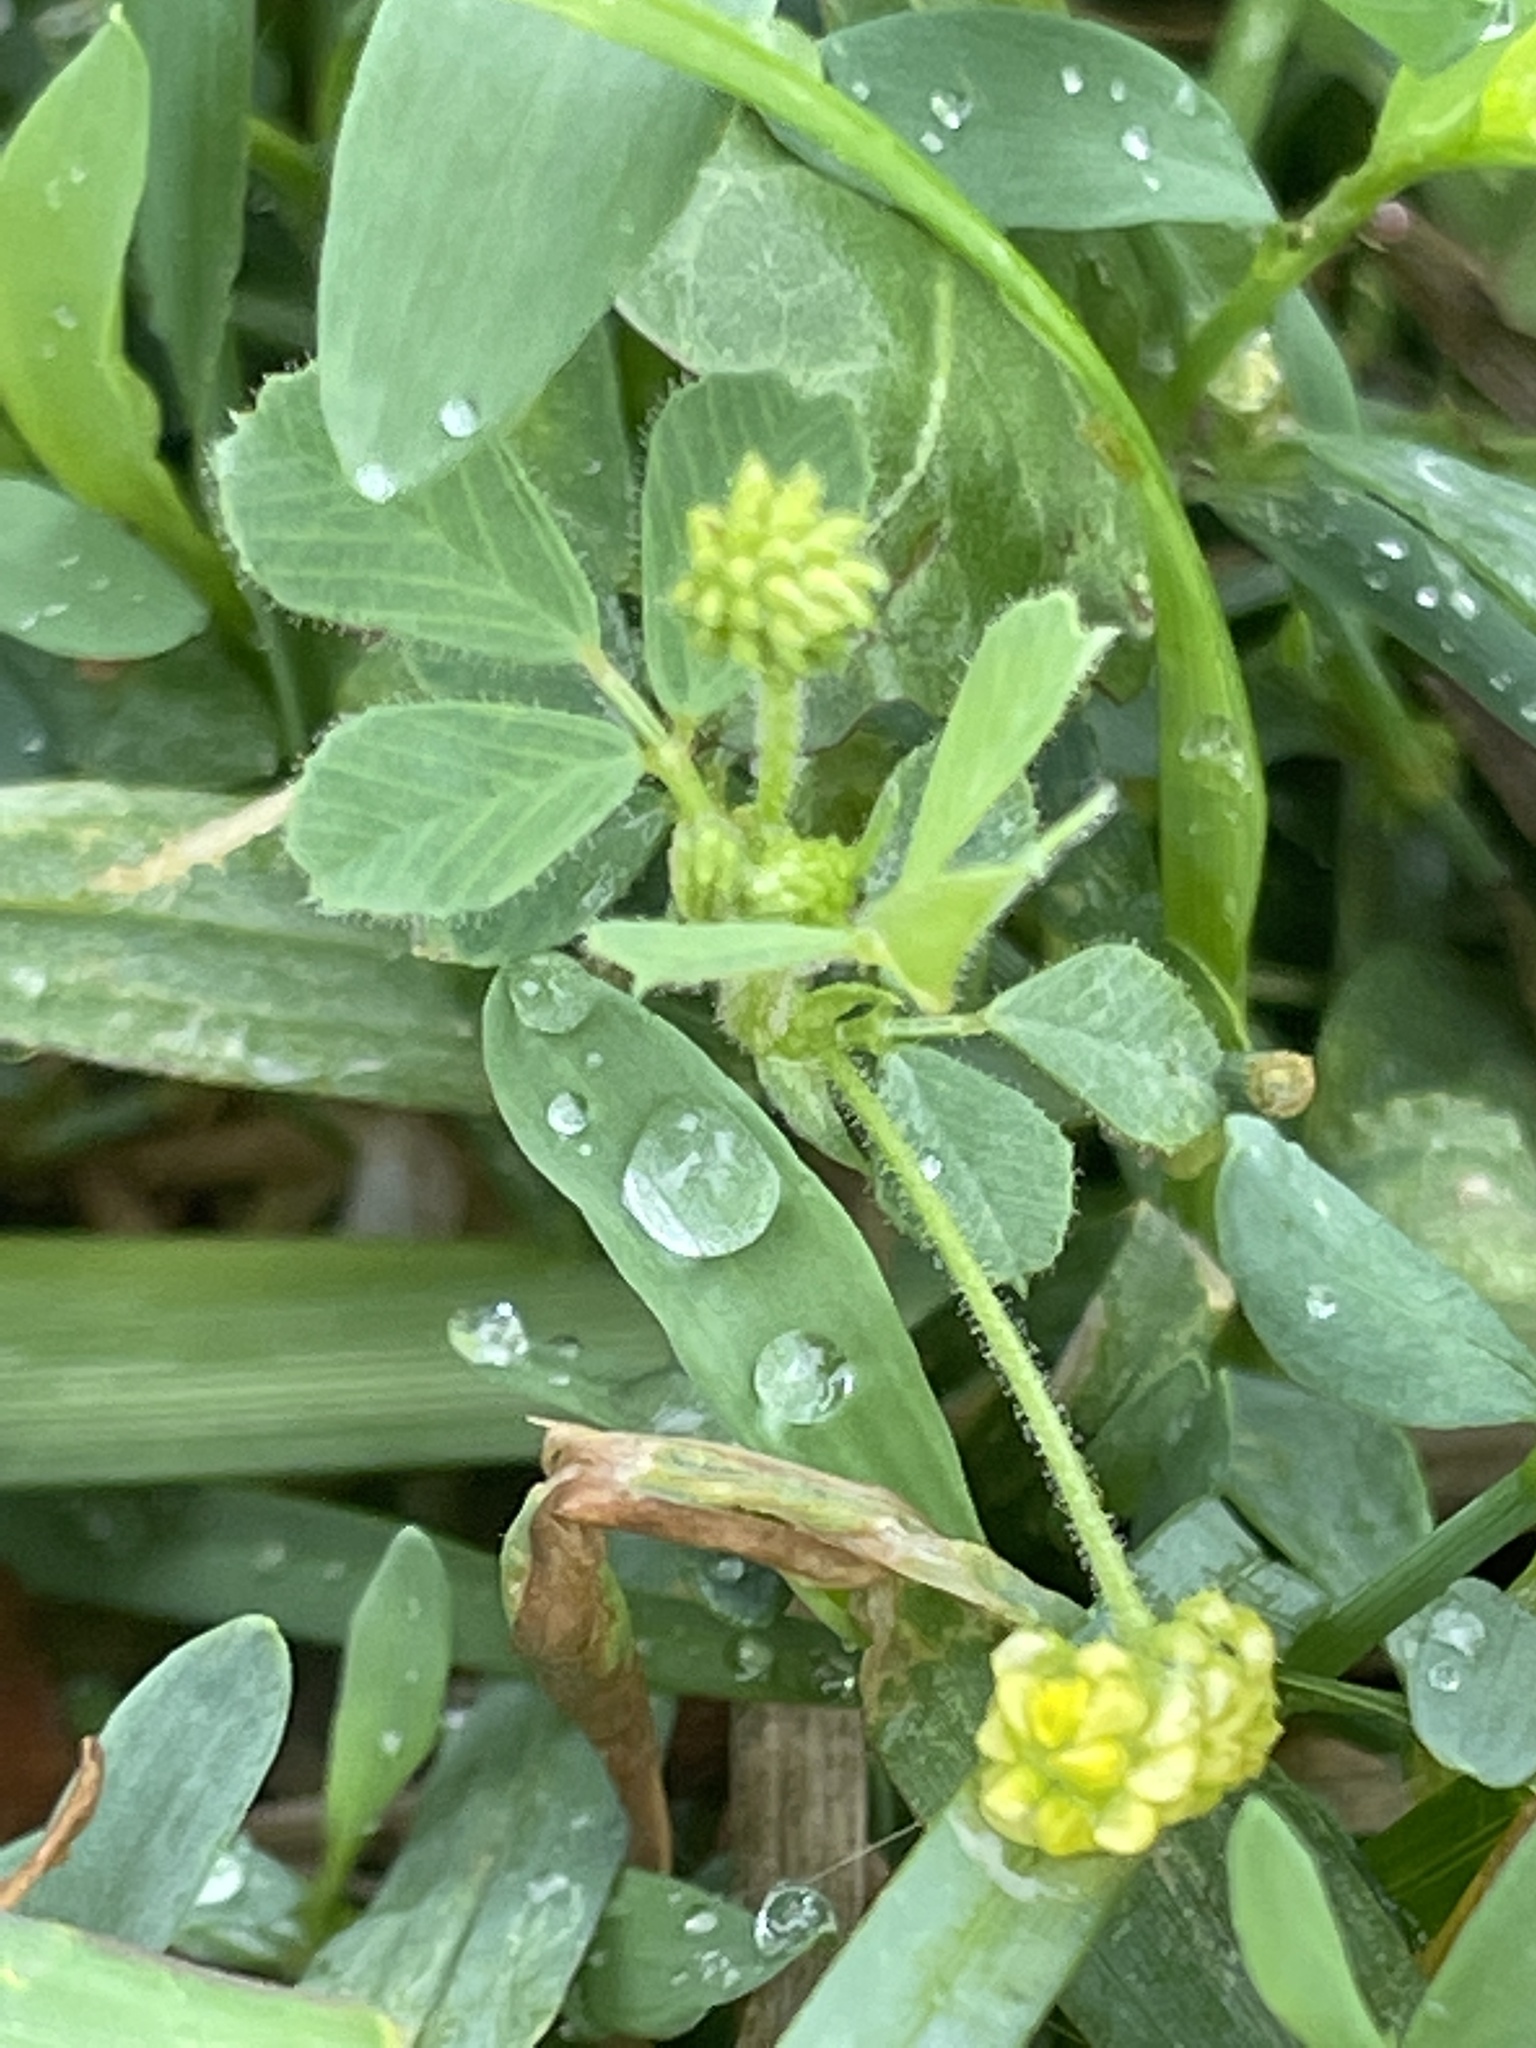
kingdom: Plantae
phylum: Tracheophyta
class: Magnoliopsida
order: Fabales
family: Fabaceae
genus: Medicago
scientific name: Medicago lupulina
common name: Black medick
